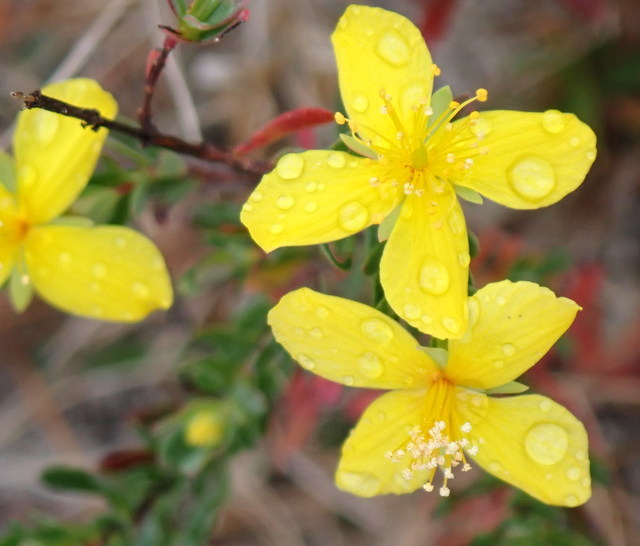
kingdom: Plantae
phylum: Tracheophyta
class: Magnoliopsida
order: Malpighiales
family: Hypericaceae
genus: Hypericum
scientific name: Hypericum microsepalum
